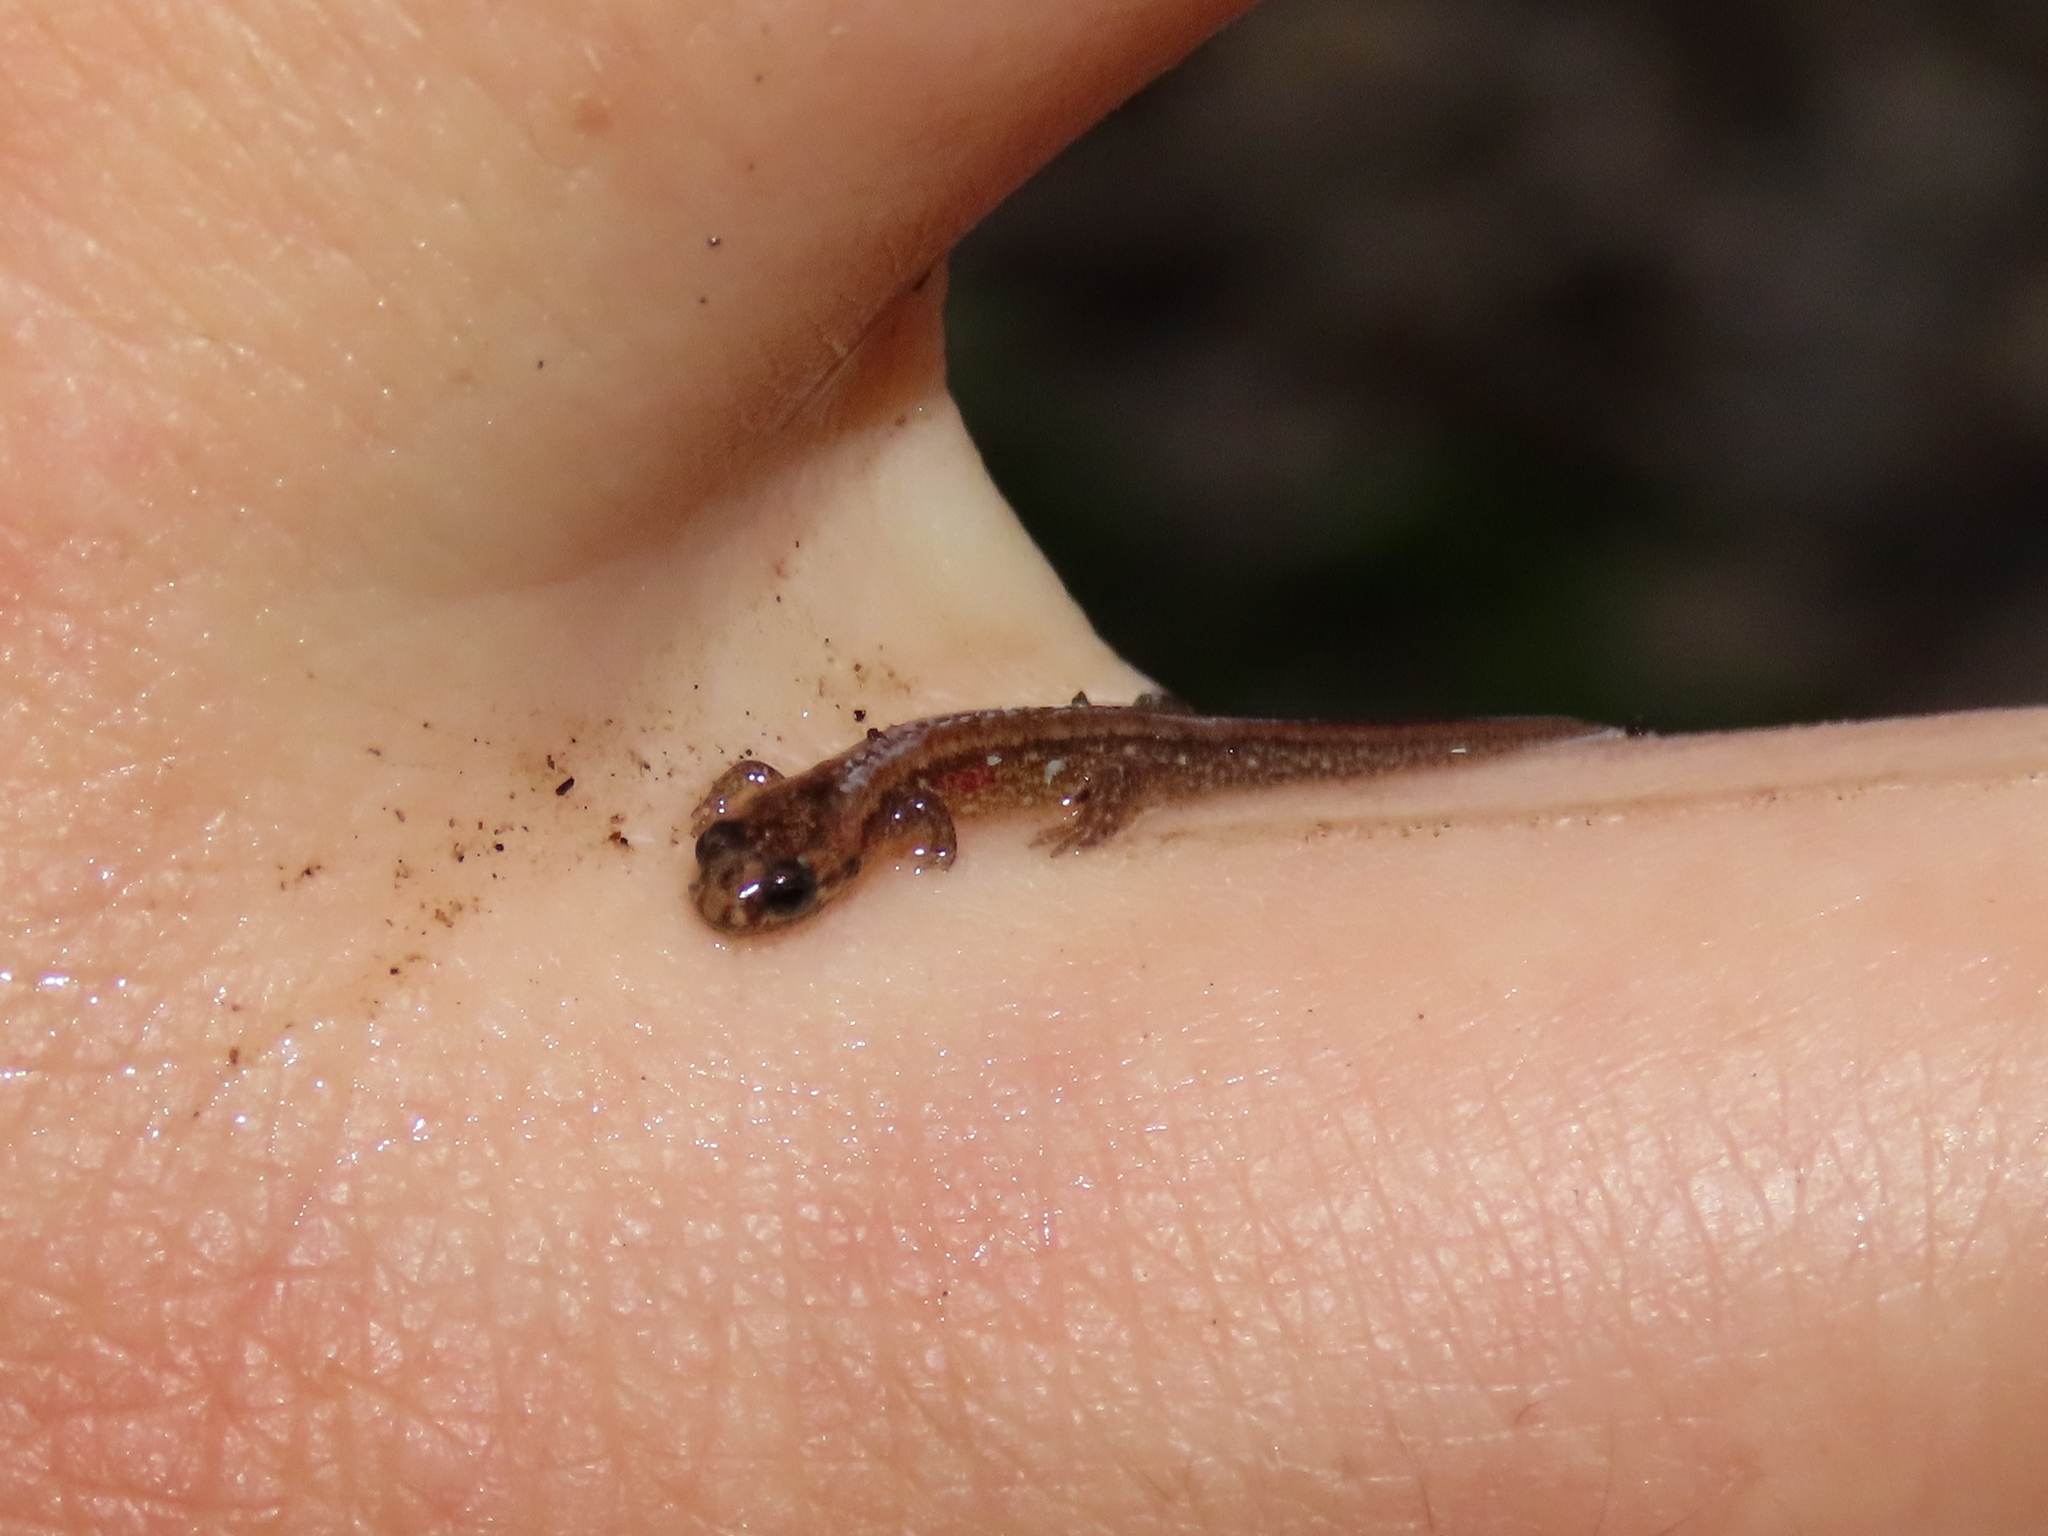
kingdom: Animalia
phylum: Chordata
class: Amphibia
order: Caudata
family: Plethodontidae
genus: Desmognathus
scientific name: Desmognathus ochrophaeus
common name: Allegheny mountain dusky salamander
